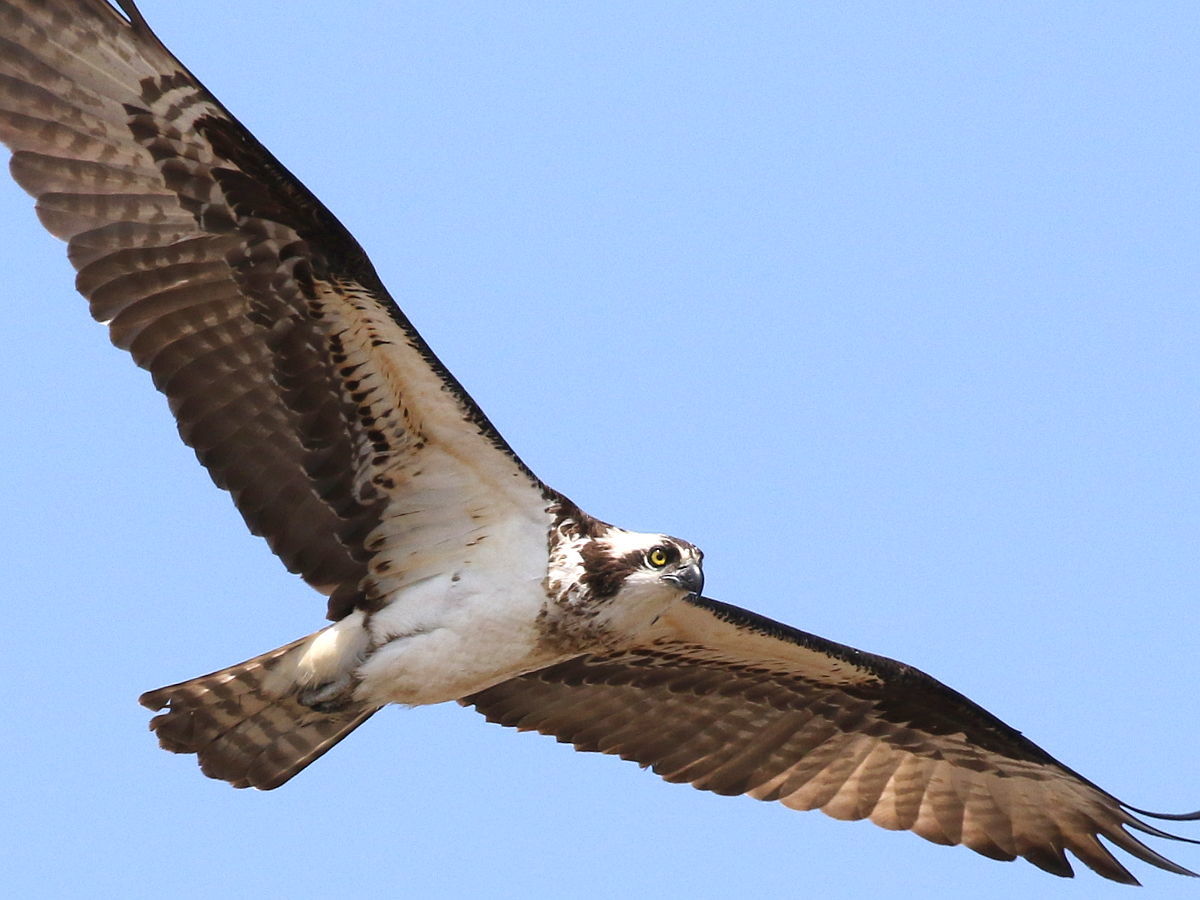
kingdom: Animalia
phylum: Chordata
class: Aves
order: Accipitriformes
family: Pandionidae
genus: Pandion
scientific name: Pandion haliaetus
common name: Osprey
